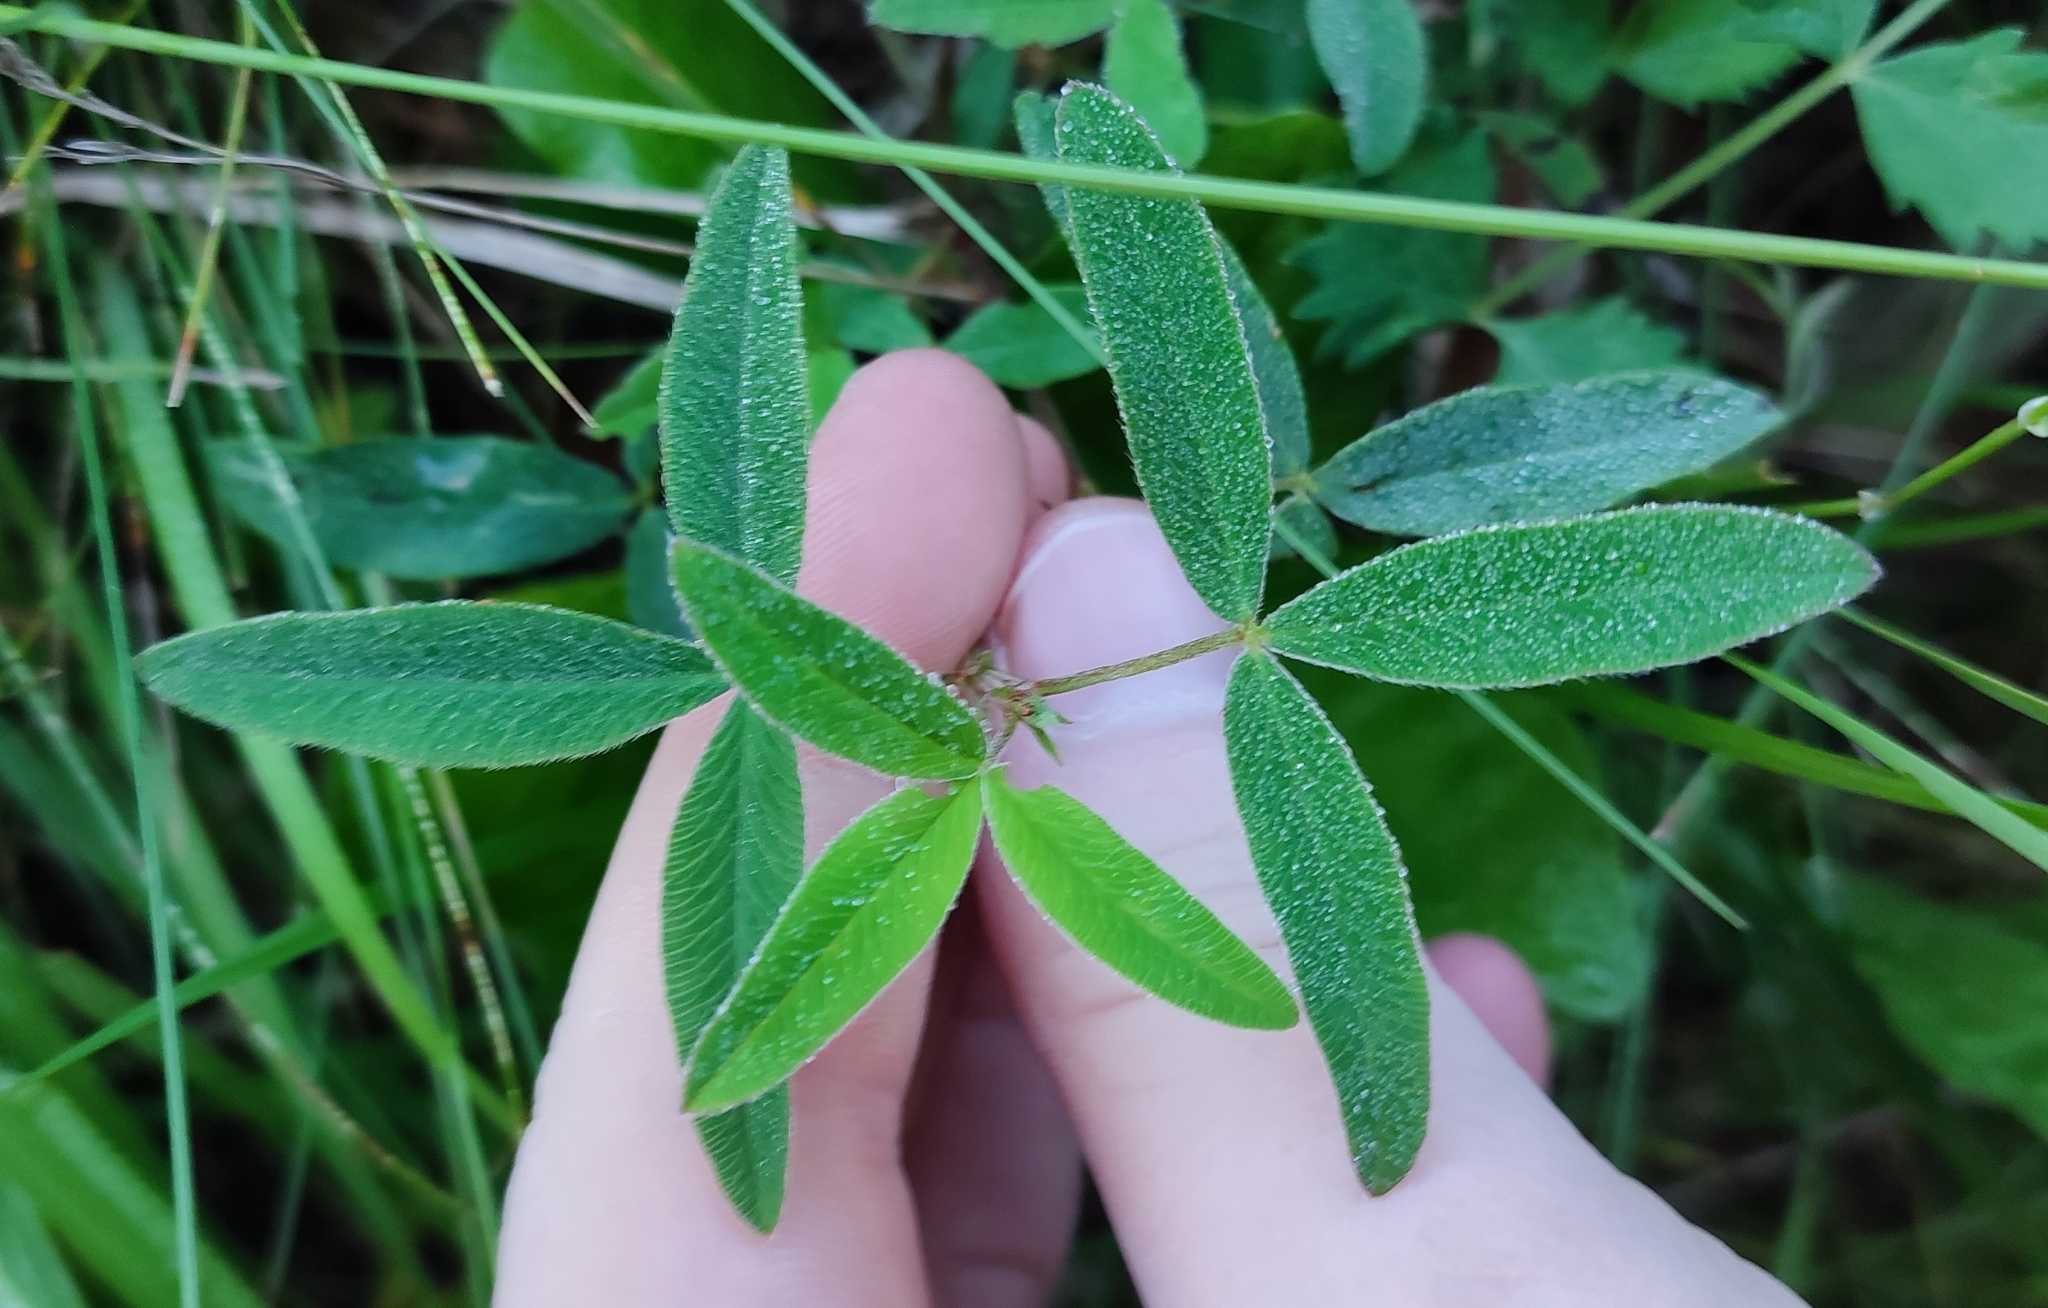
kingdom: Plantae
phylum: Tracheophyta
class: Magnoliopsida
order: Fabales
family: Fabaceae
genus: Trifolium
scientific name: Trifolium medium
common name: Zigzag clover
